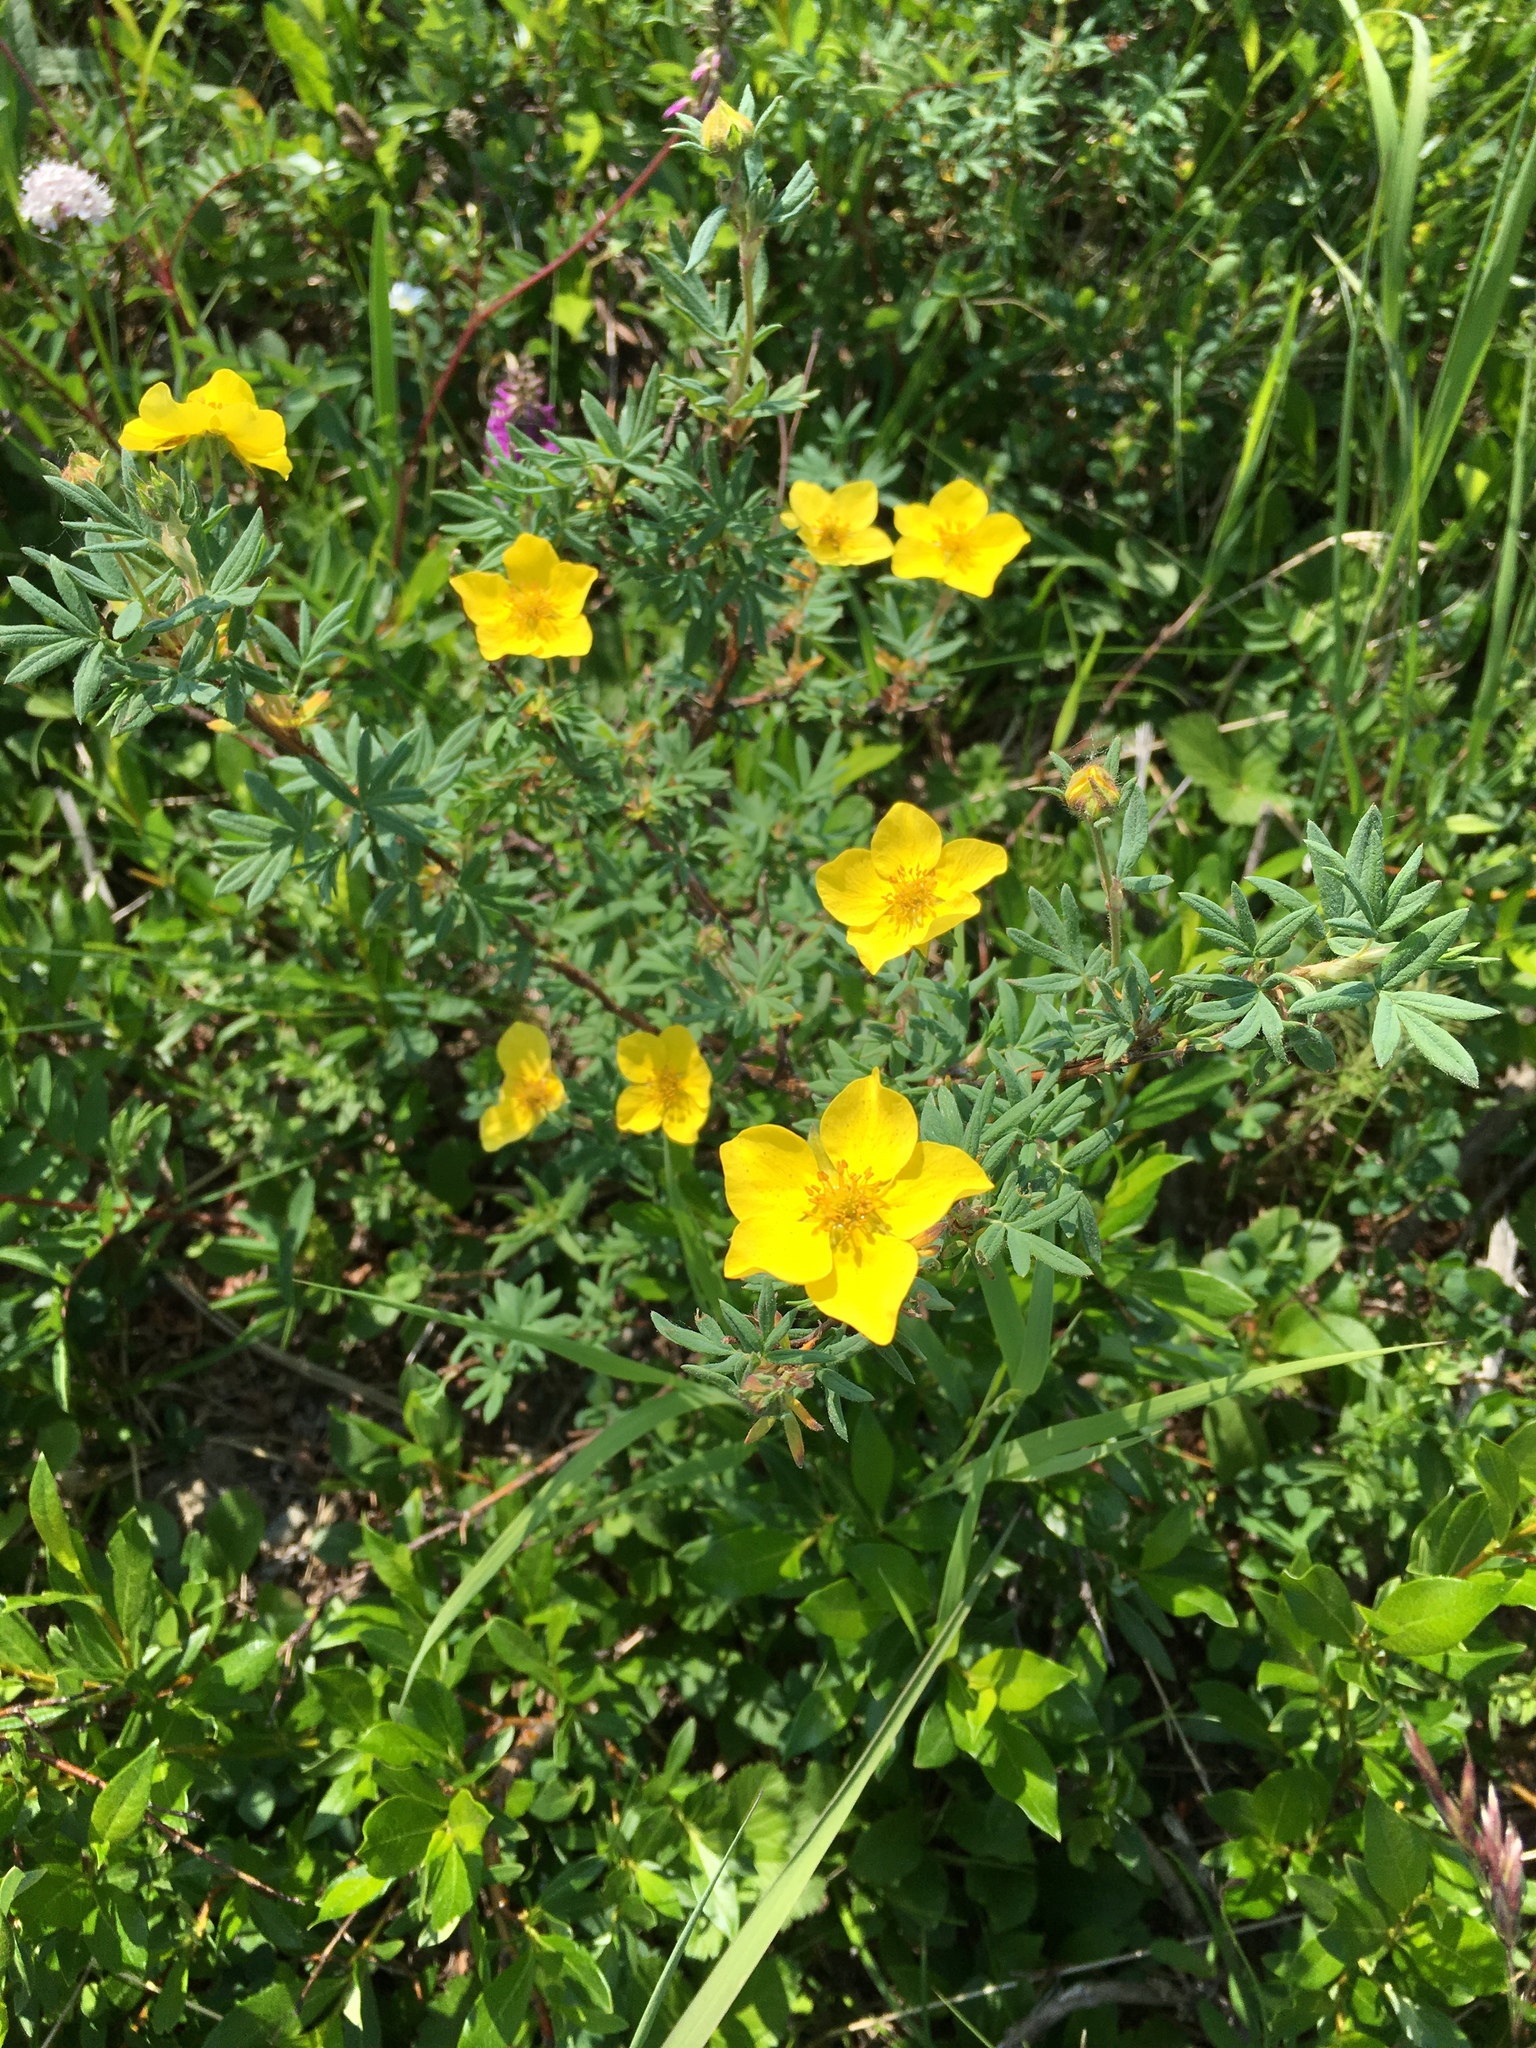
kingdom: Plantae
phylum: Tracheophyta
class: Magnoliopsida
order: Rosales
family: Rosaceae
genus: Dasiphora
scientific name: Dasiphora fruticosa
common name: Shrubby cinquefoil
